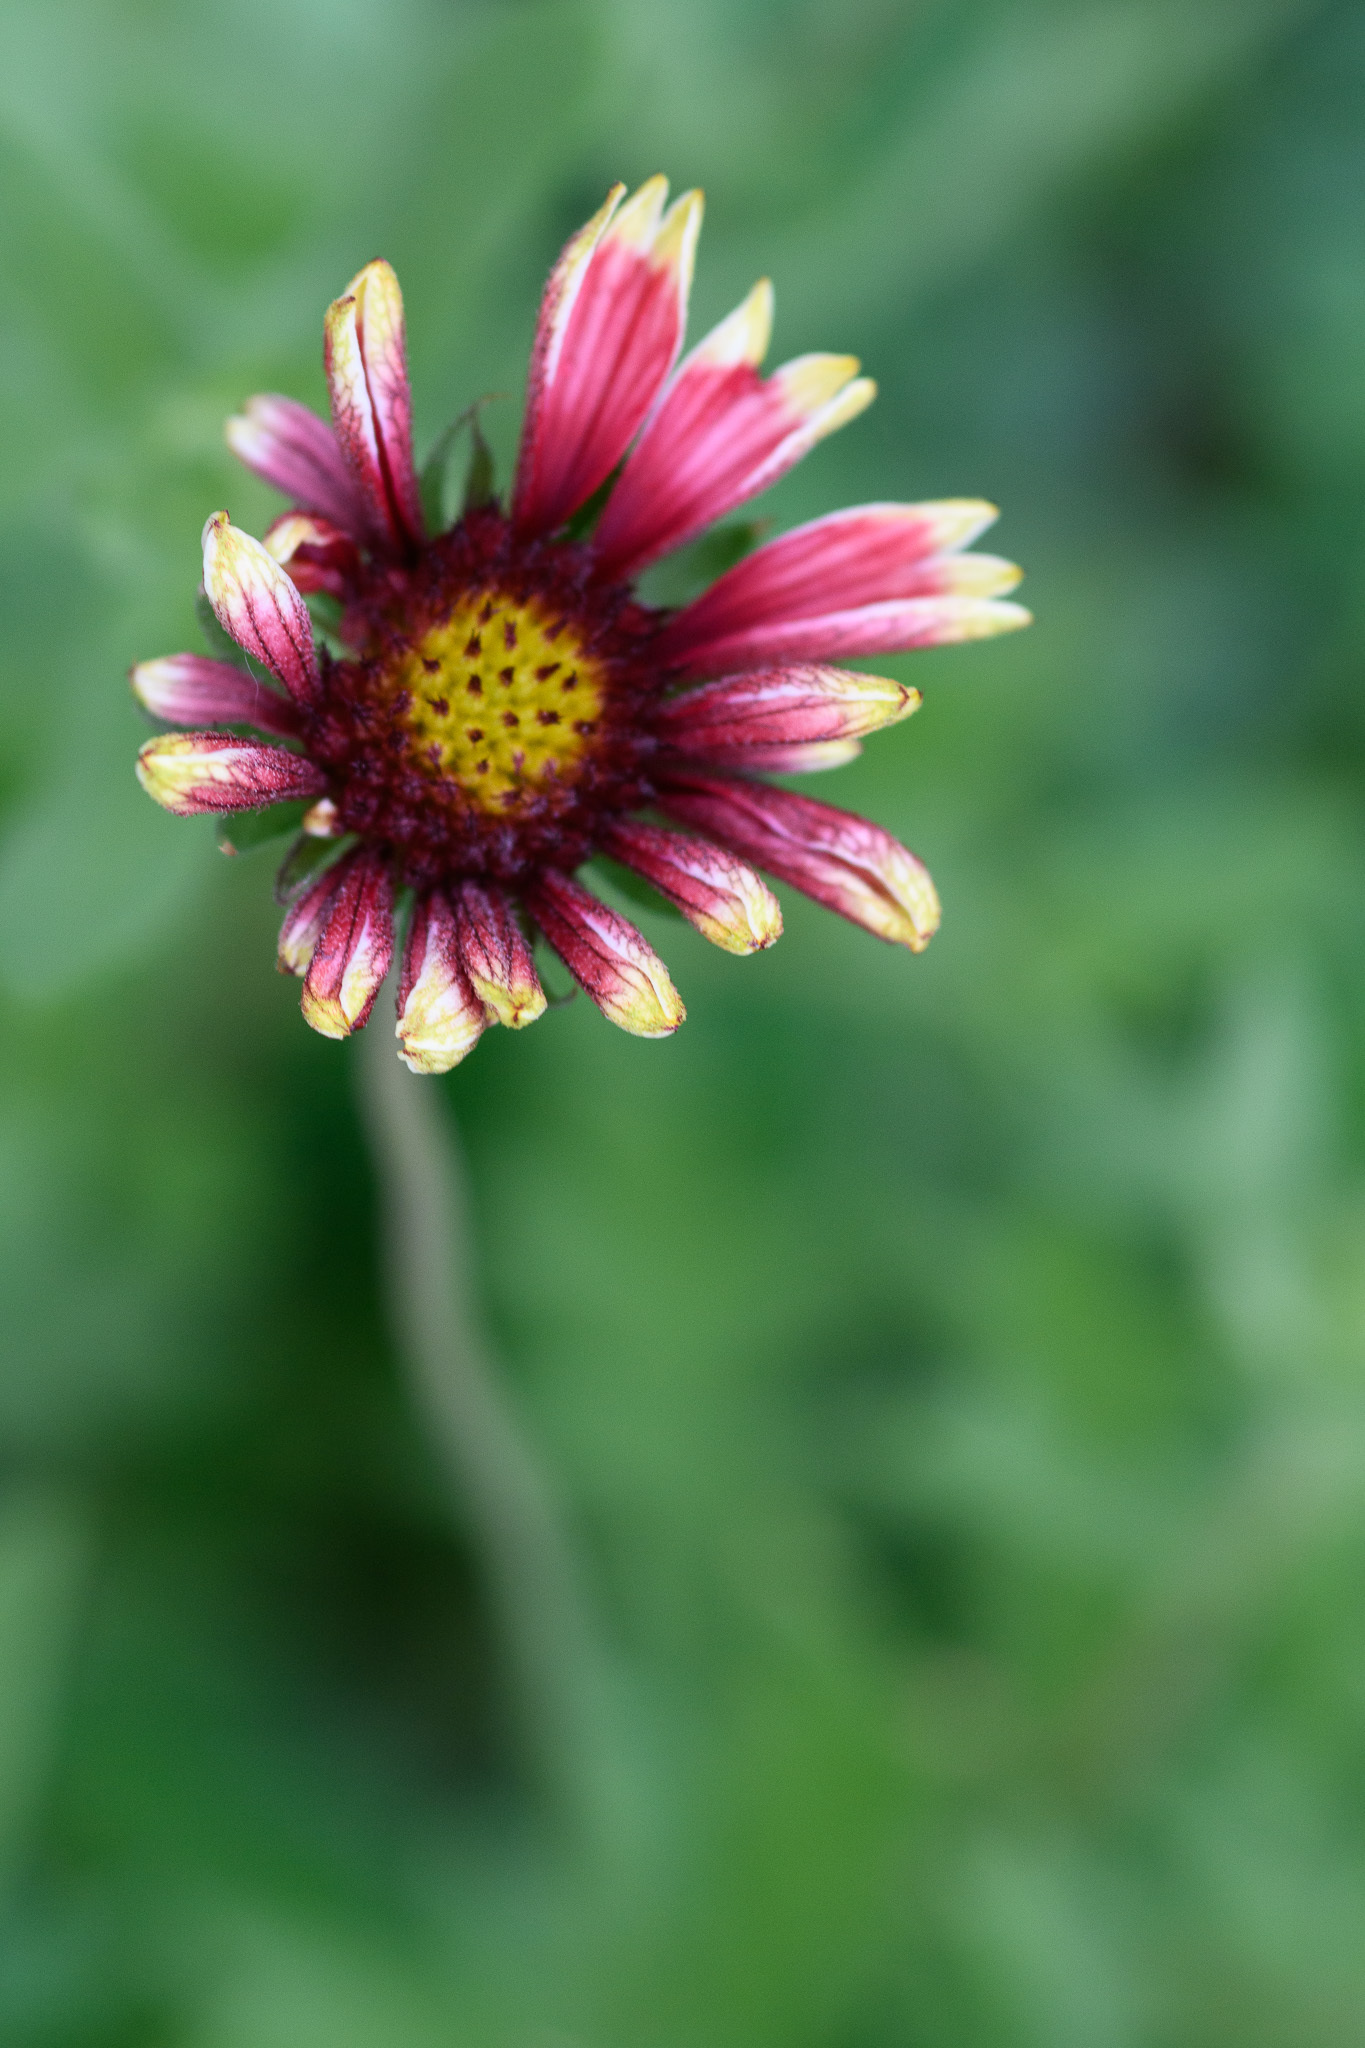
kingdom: Plantae
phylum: Tracheophyta
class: Magnoliopsida
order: Asterales
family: Asteraceae
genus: Gaillardia
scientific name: Gaillardia pulchella
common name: Firewheel
